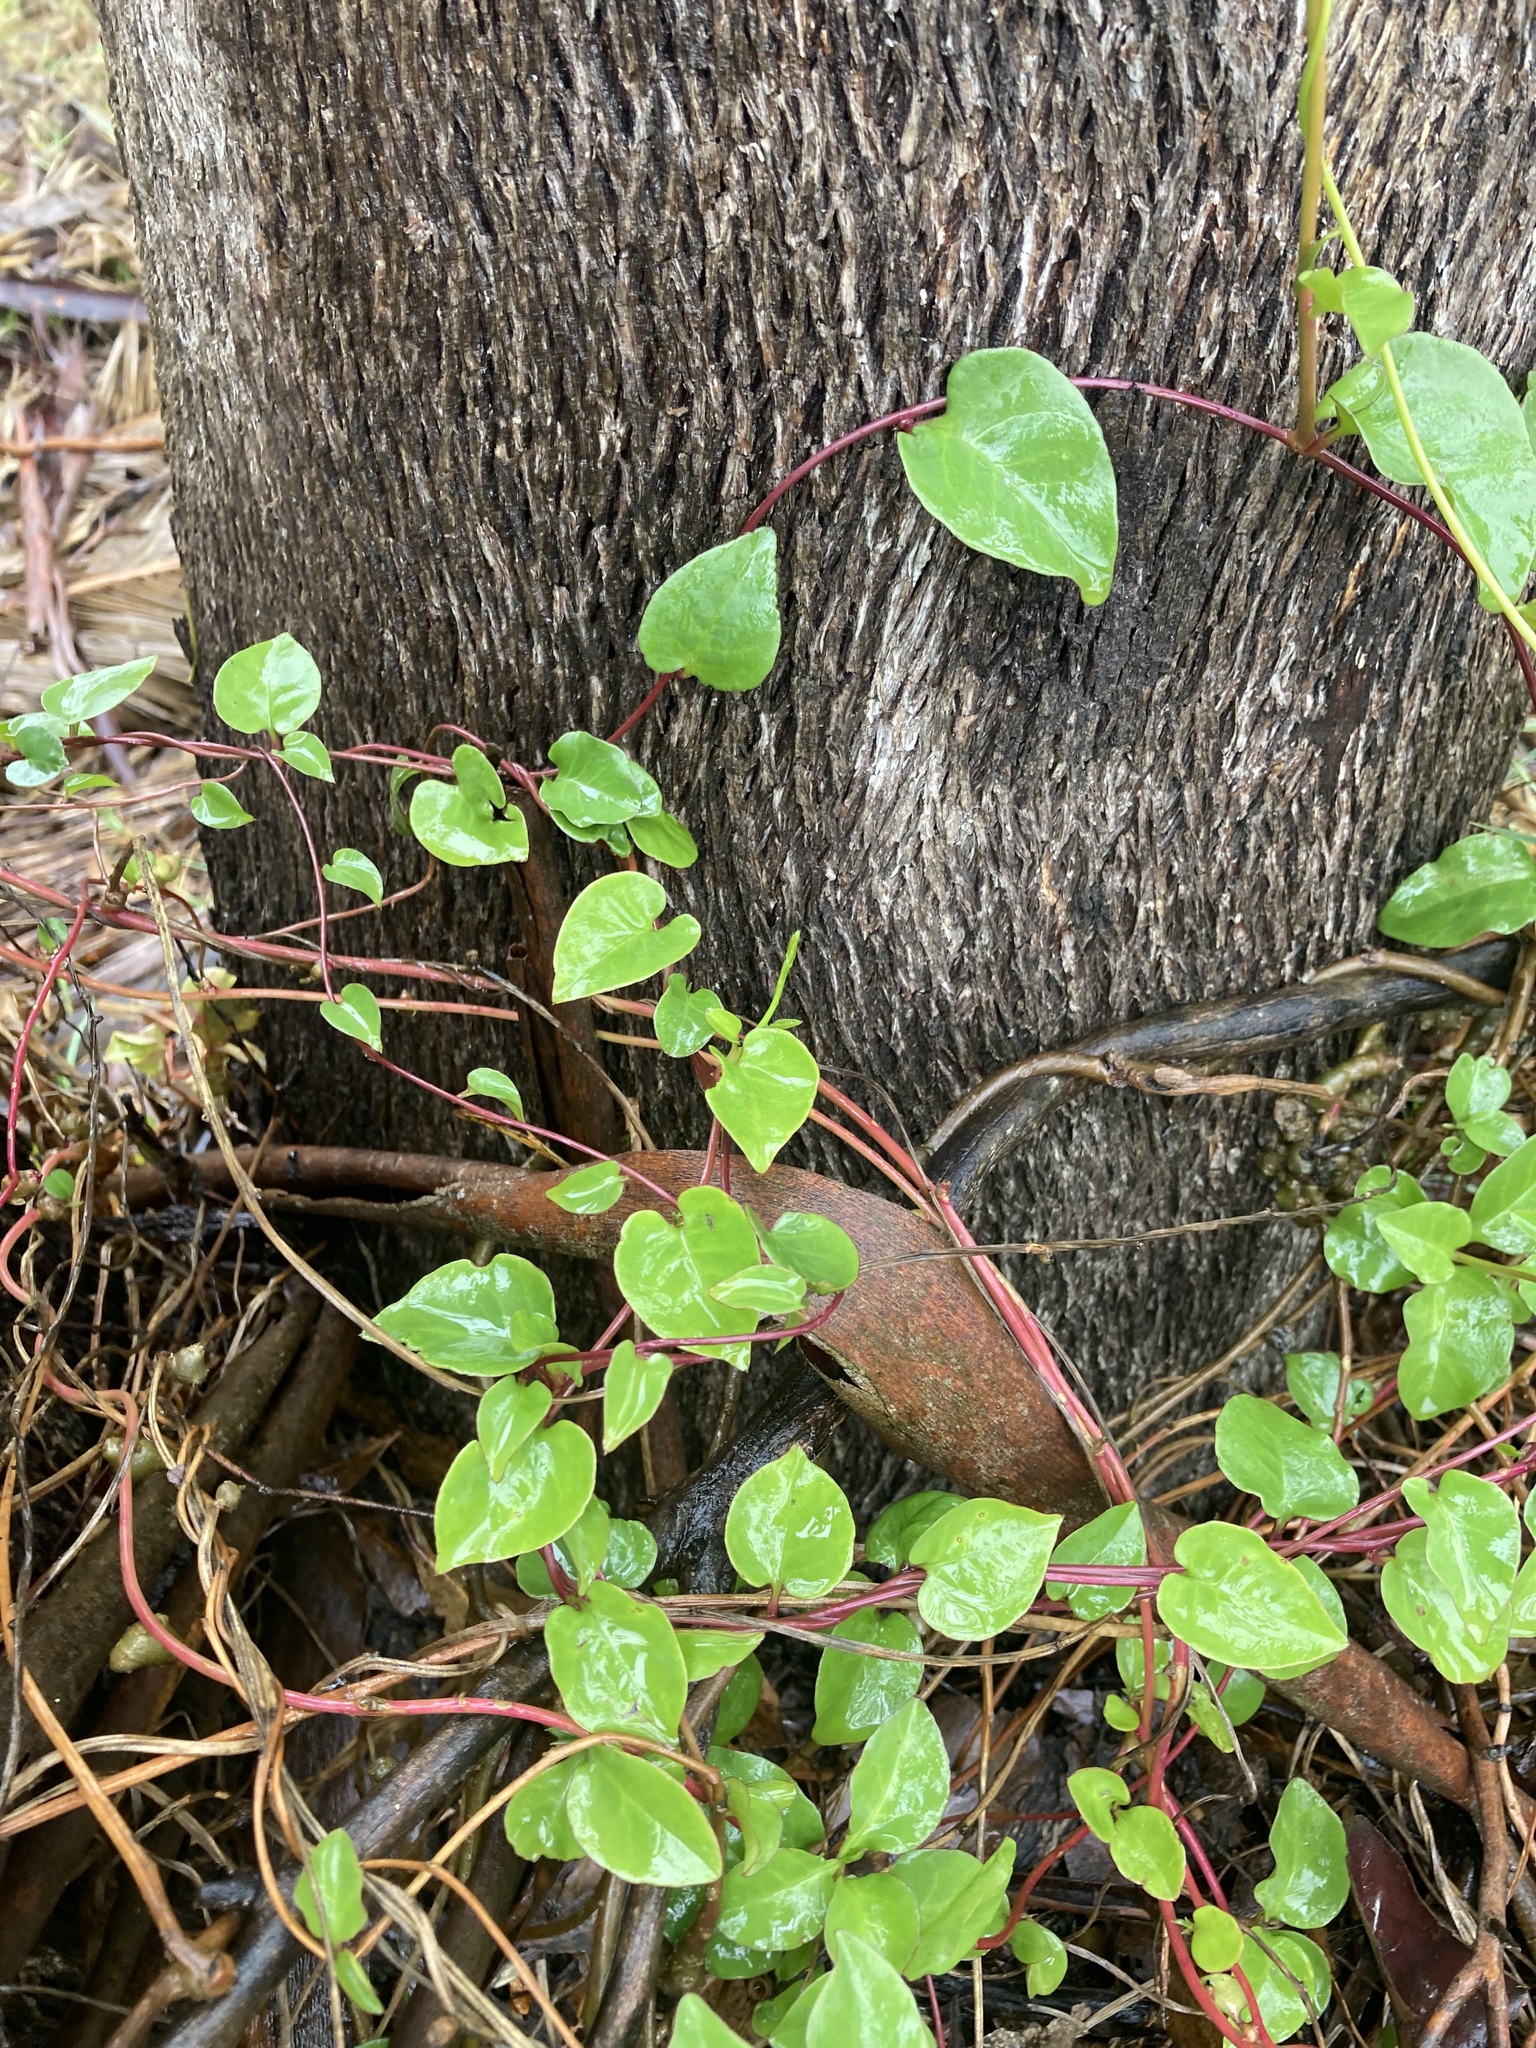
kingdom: Plantae
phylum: Tracheophyta
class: Magnoliopsida
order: Caryophyllales
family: Basellaceae
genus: Anredera
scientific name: Anredera cordifolia
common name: Heartleaf madeiravine
